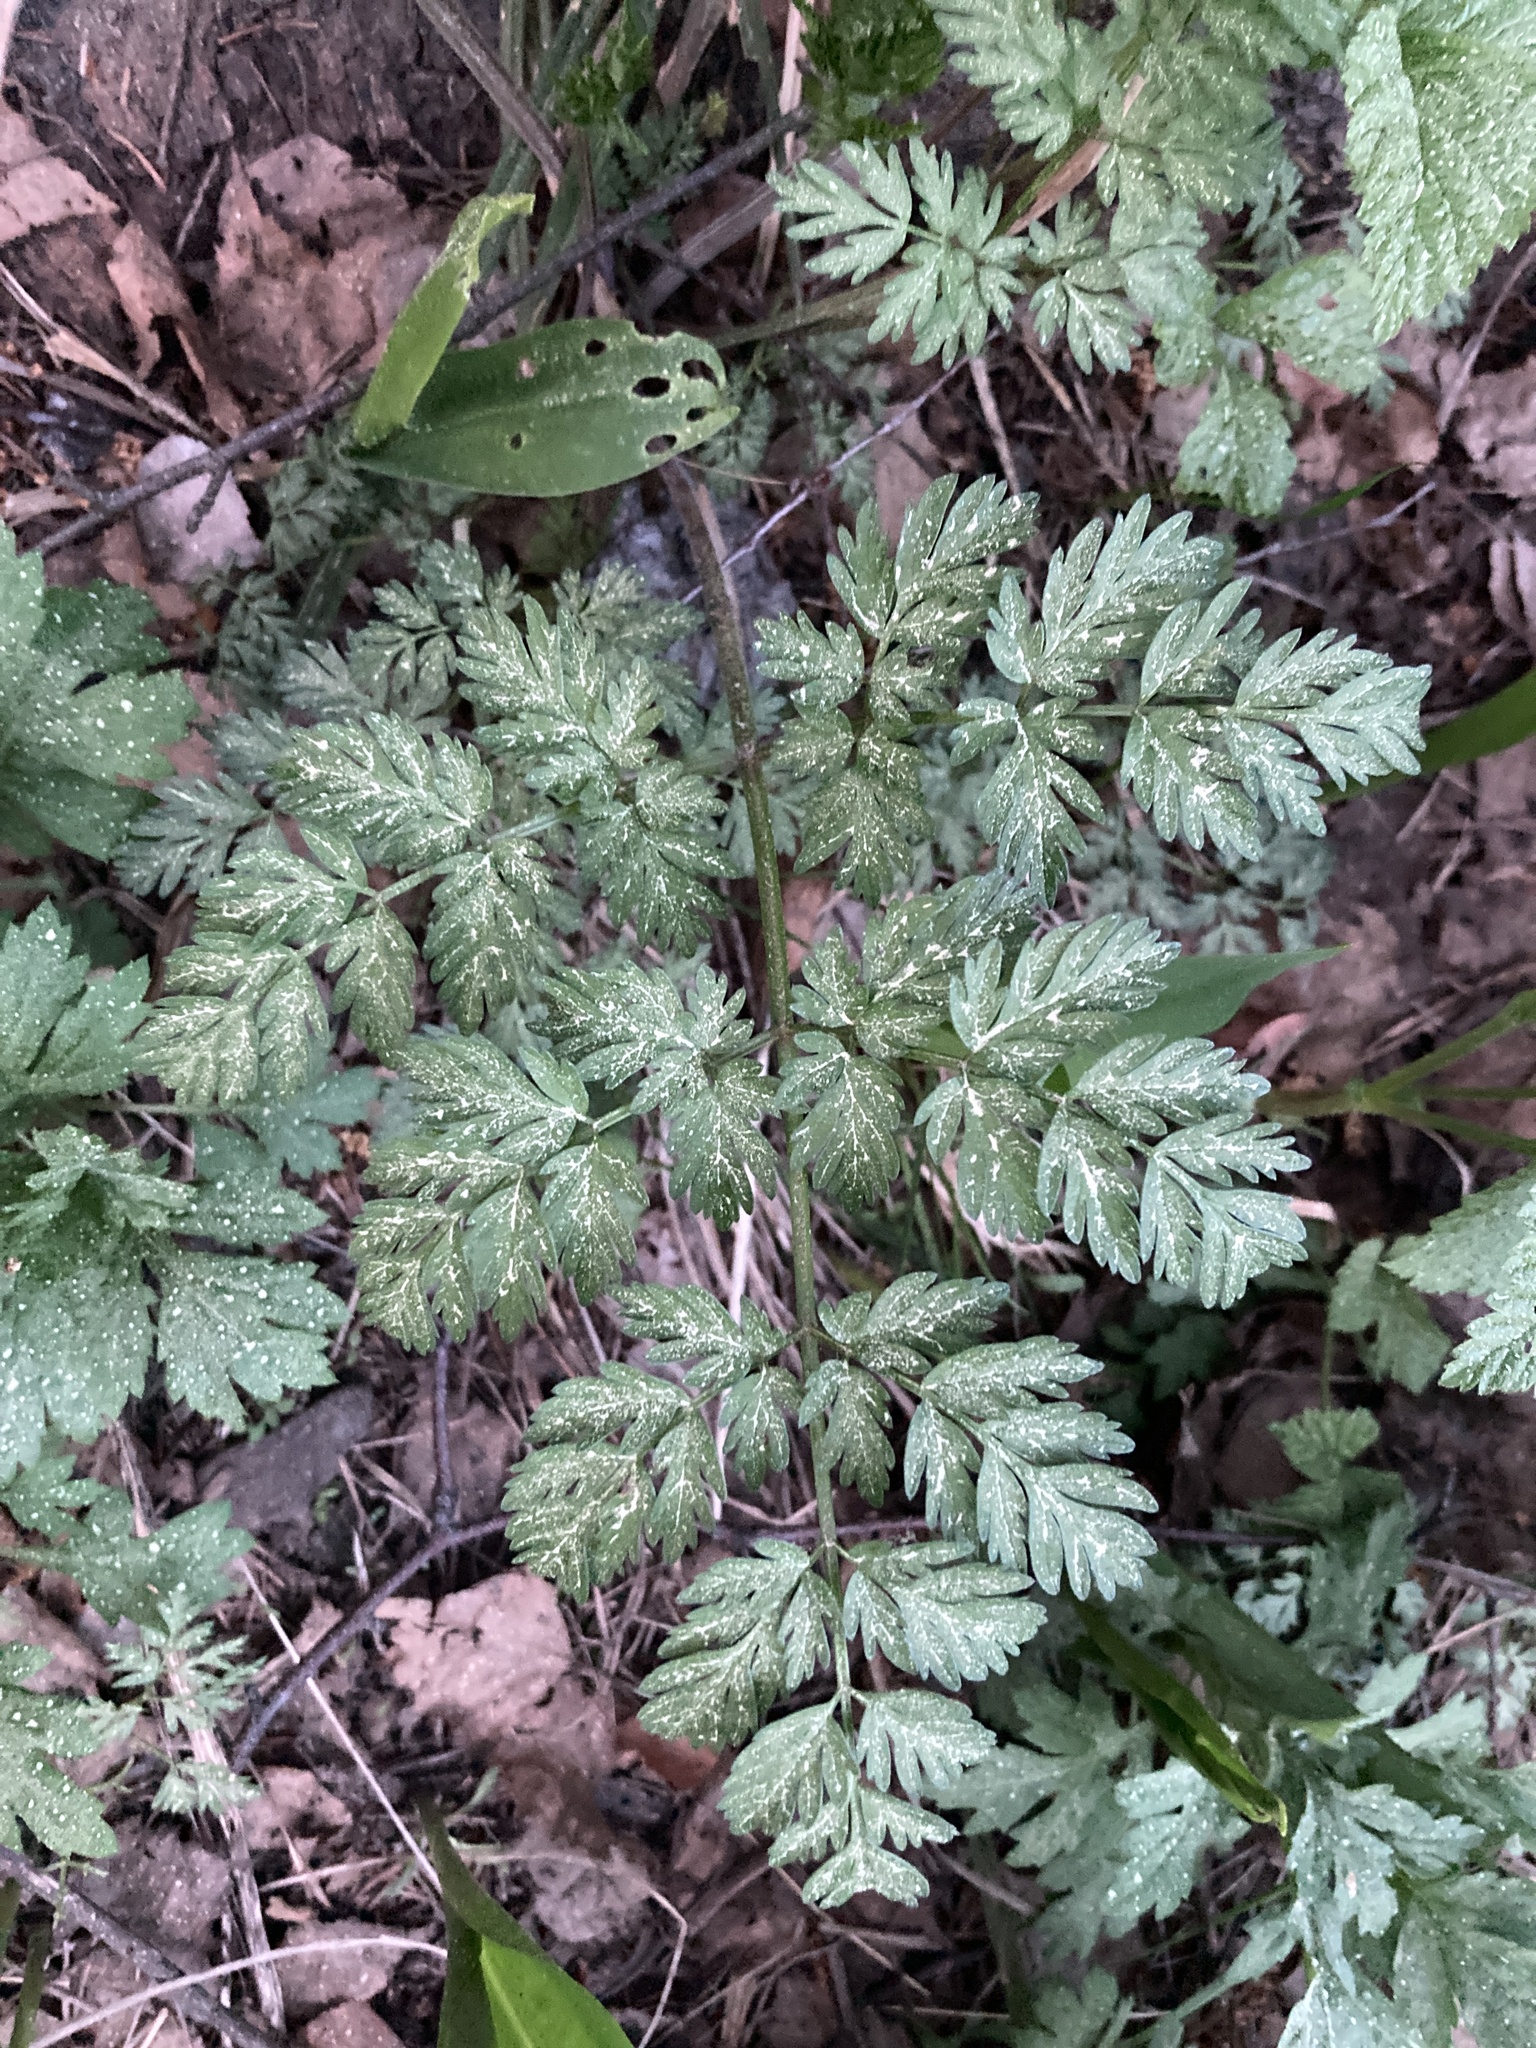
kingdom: Plantae
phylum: Tracheophyta
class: Magnoliopsida
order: Apiales
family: Apiaceae
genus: Anthriscus
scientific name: Anthriscus sylvestris
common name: Cow parsley
